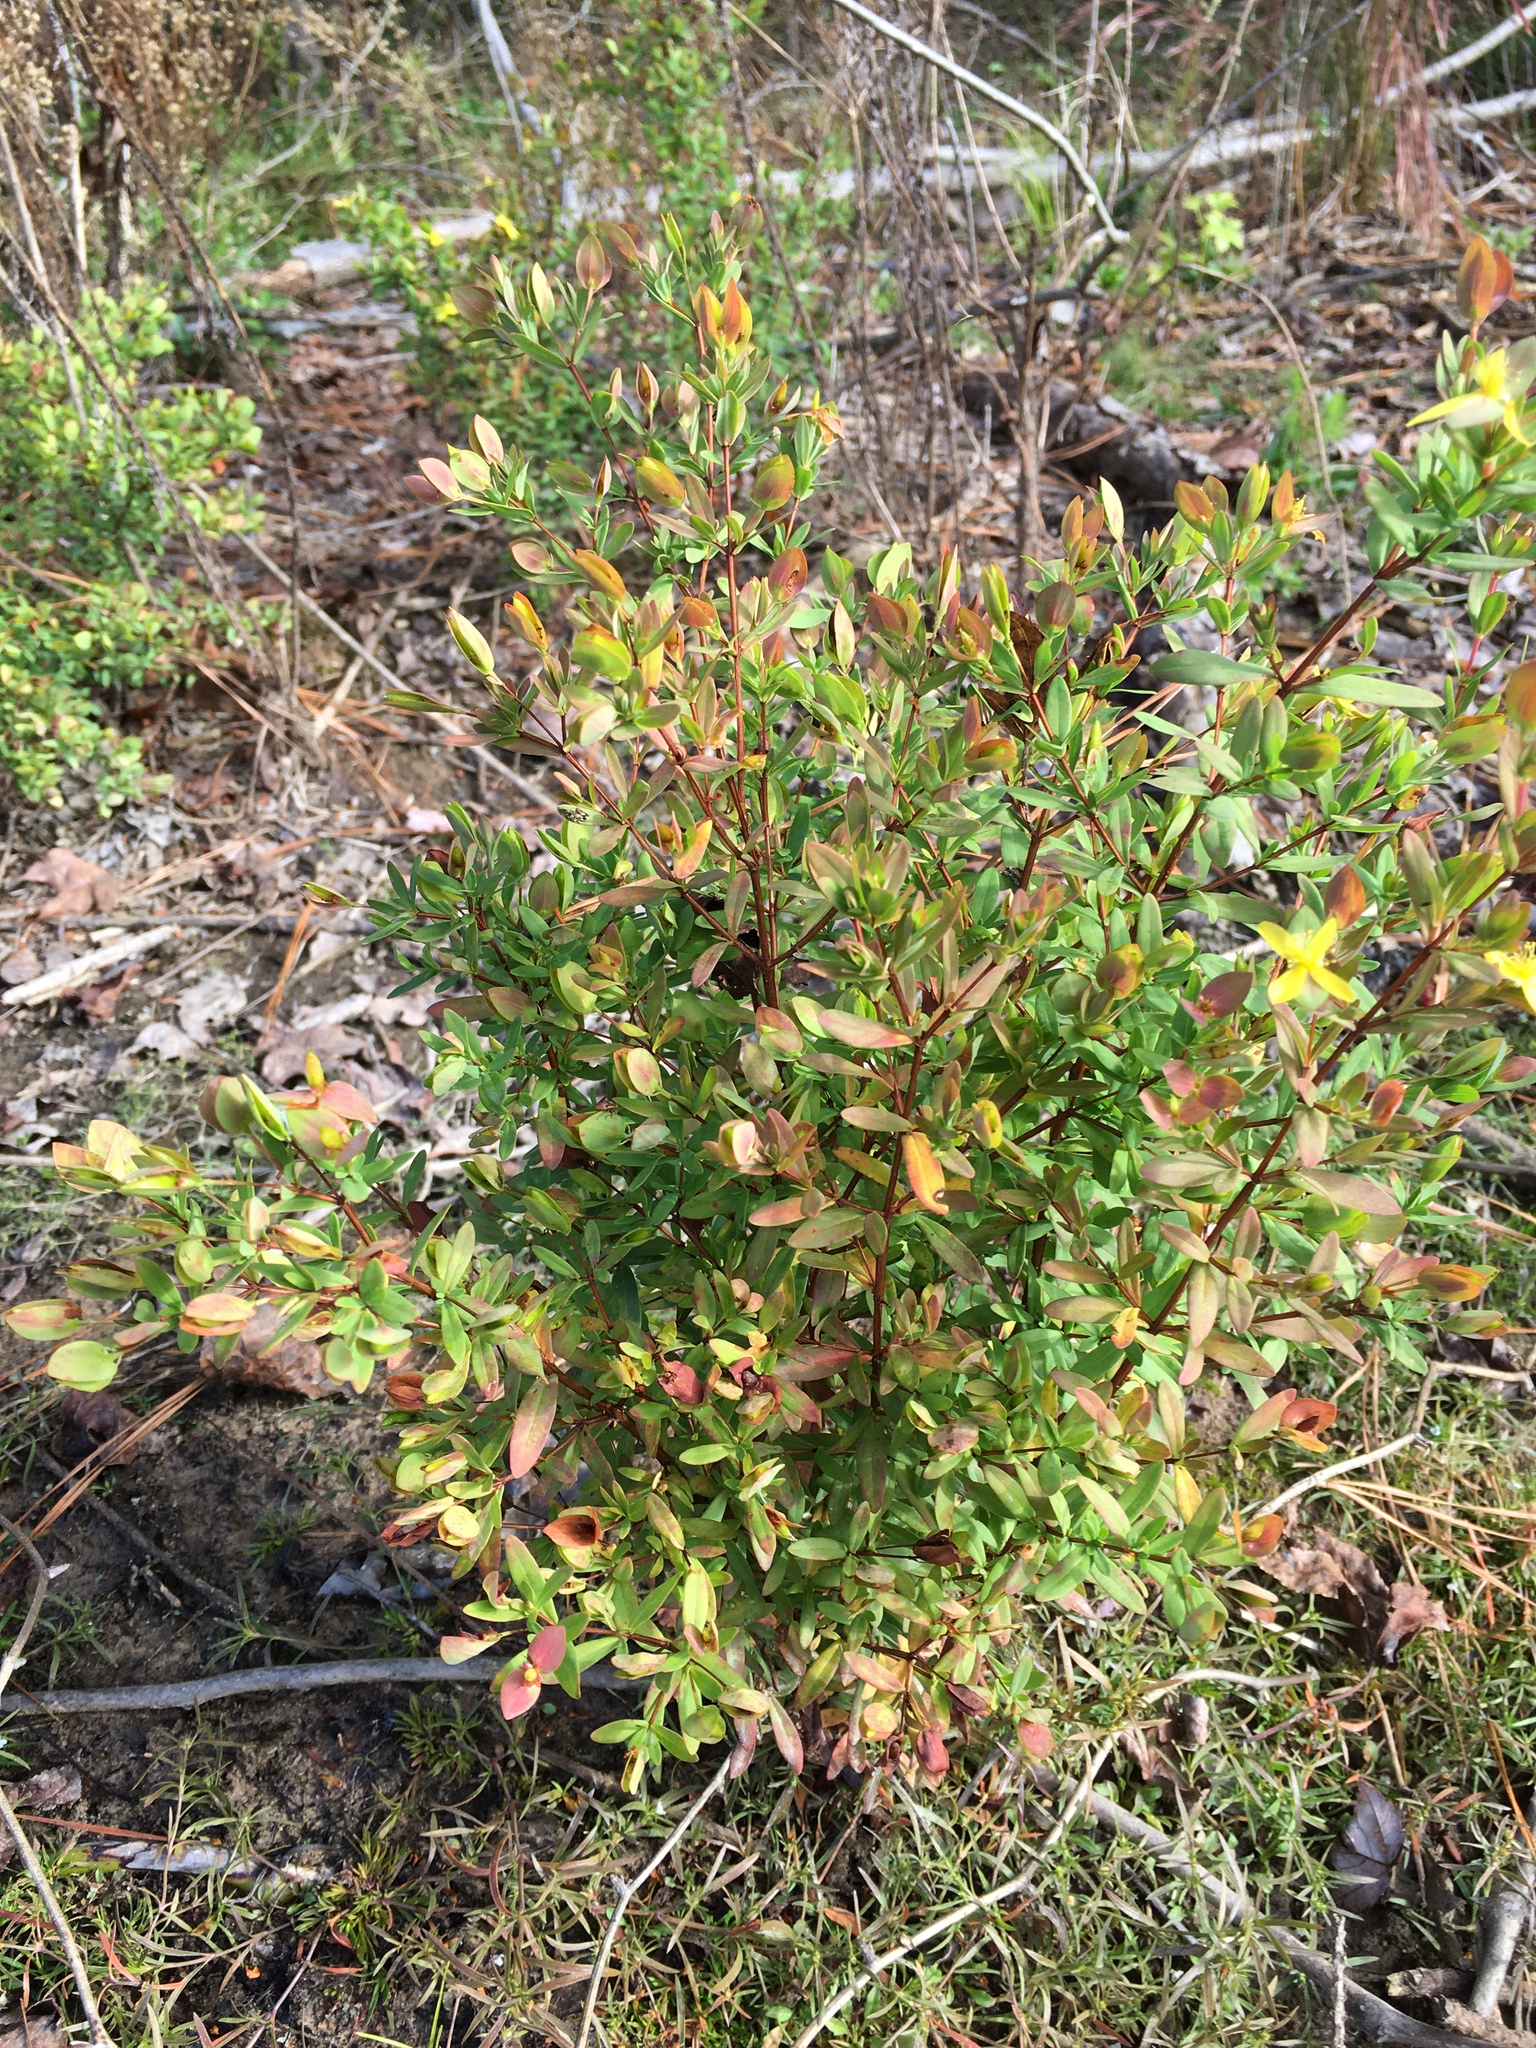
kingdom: Plantae
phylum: Tracheophyta
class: Magnoliopsida
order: Malpighiales
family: Hypericaceae
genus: Hypericum
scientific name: Hypericum hypericoides
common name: St. andrew's cross
